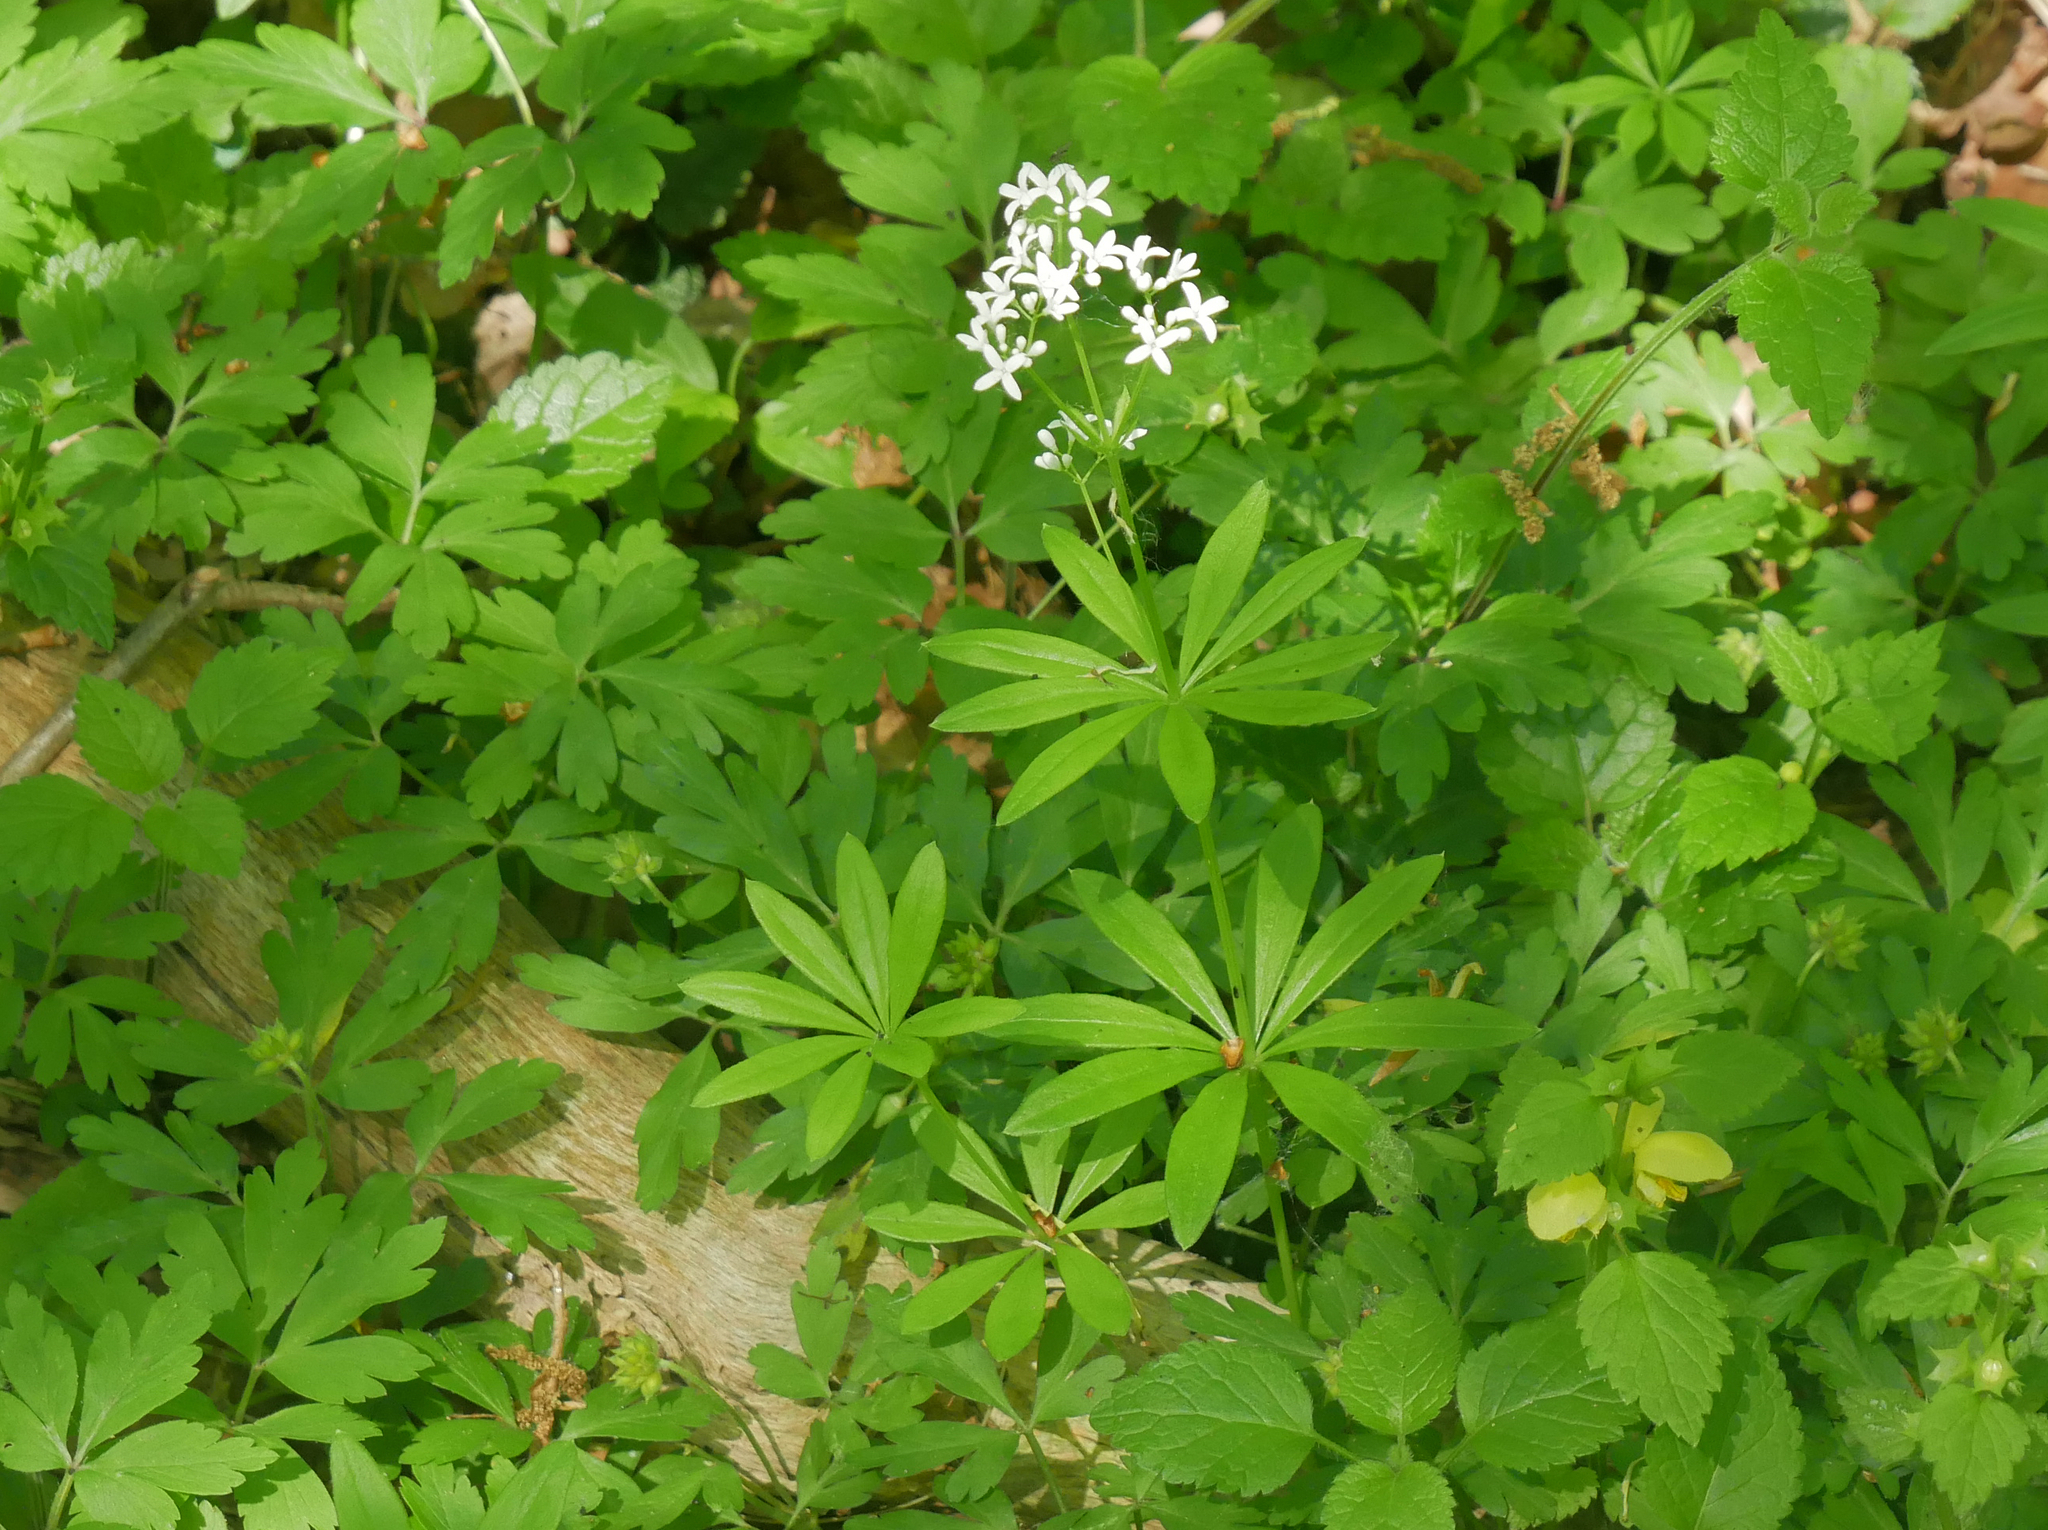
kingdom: Plantae
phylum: Tracheophyta
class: Magnoliopsida
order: Gentianales
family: Rubiaceae
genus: Galium
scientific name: Galium odoratum
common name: Sweet woodruff
